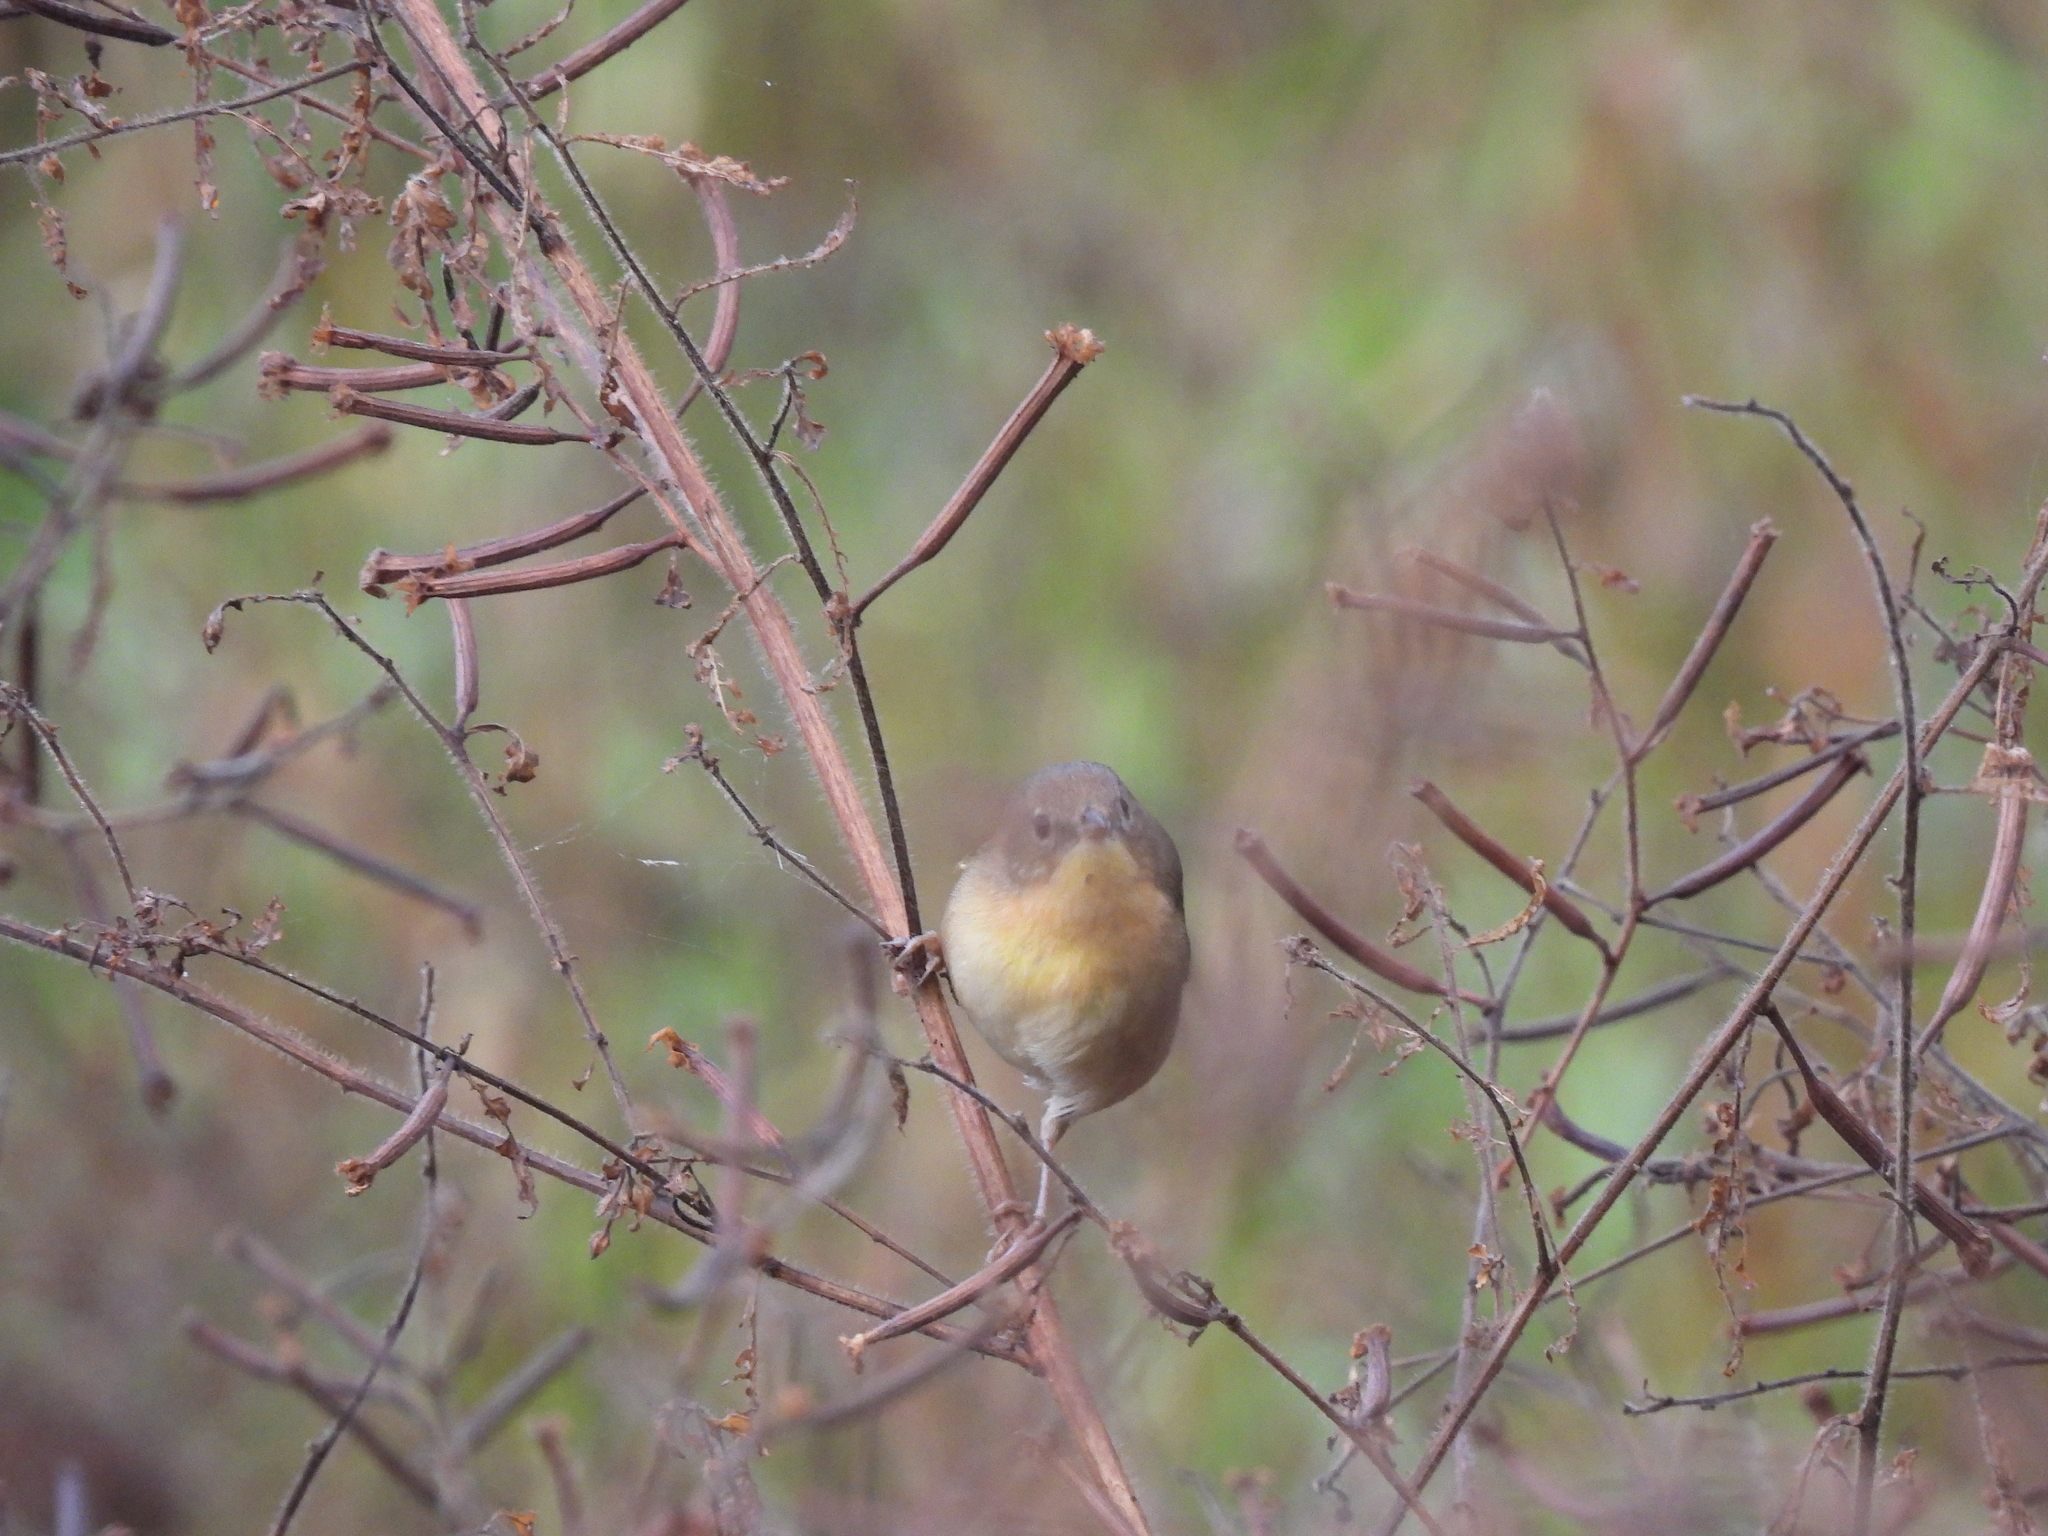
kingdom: Animalia
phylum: Chordata
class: Aves
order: Passeriformes
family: Parulidae
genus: Geothlypis
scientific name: Geothlypis trichas
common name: Common yellowthroat
